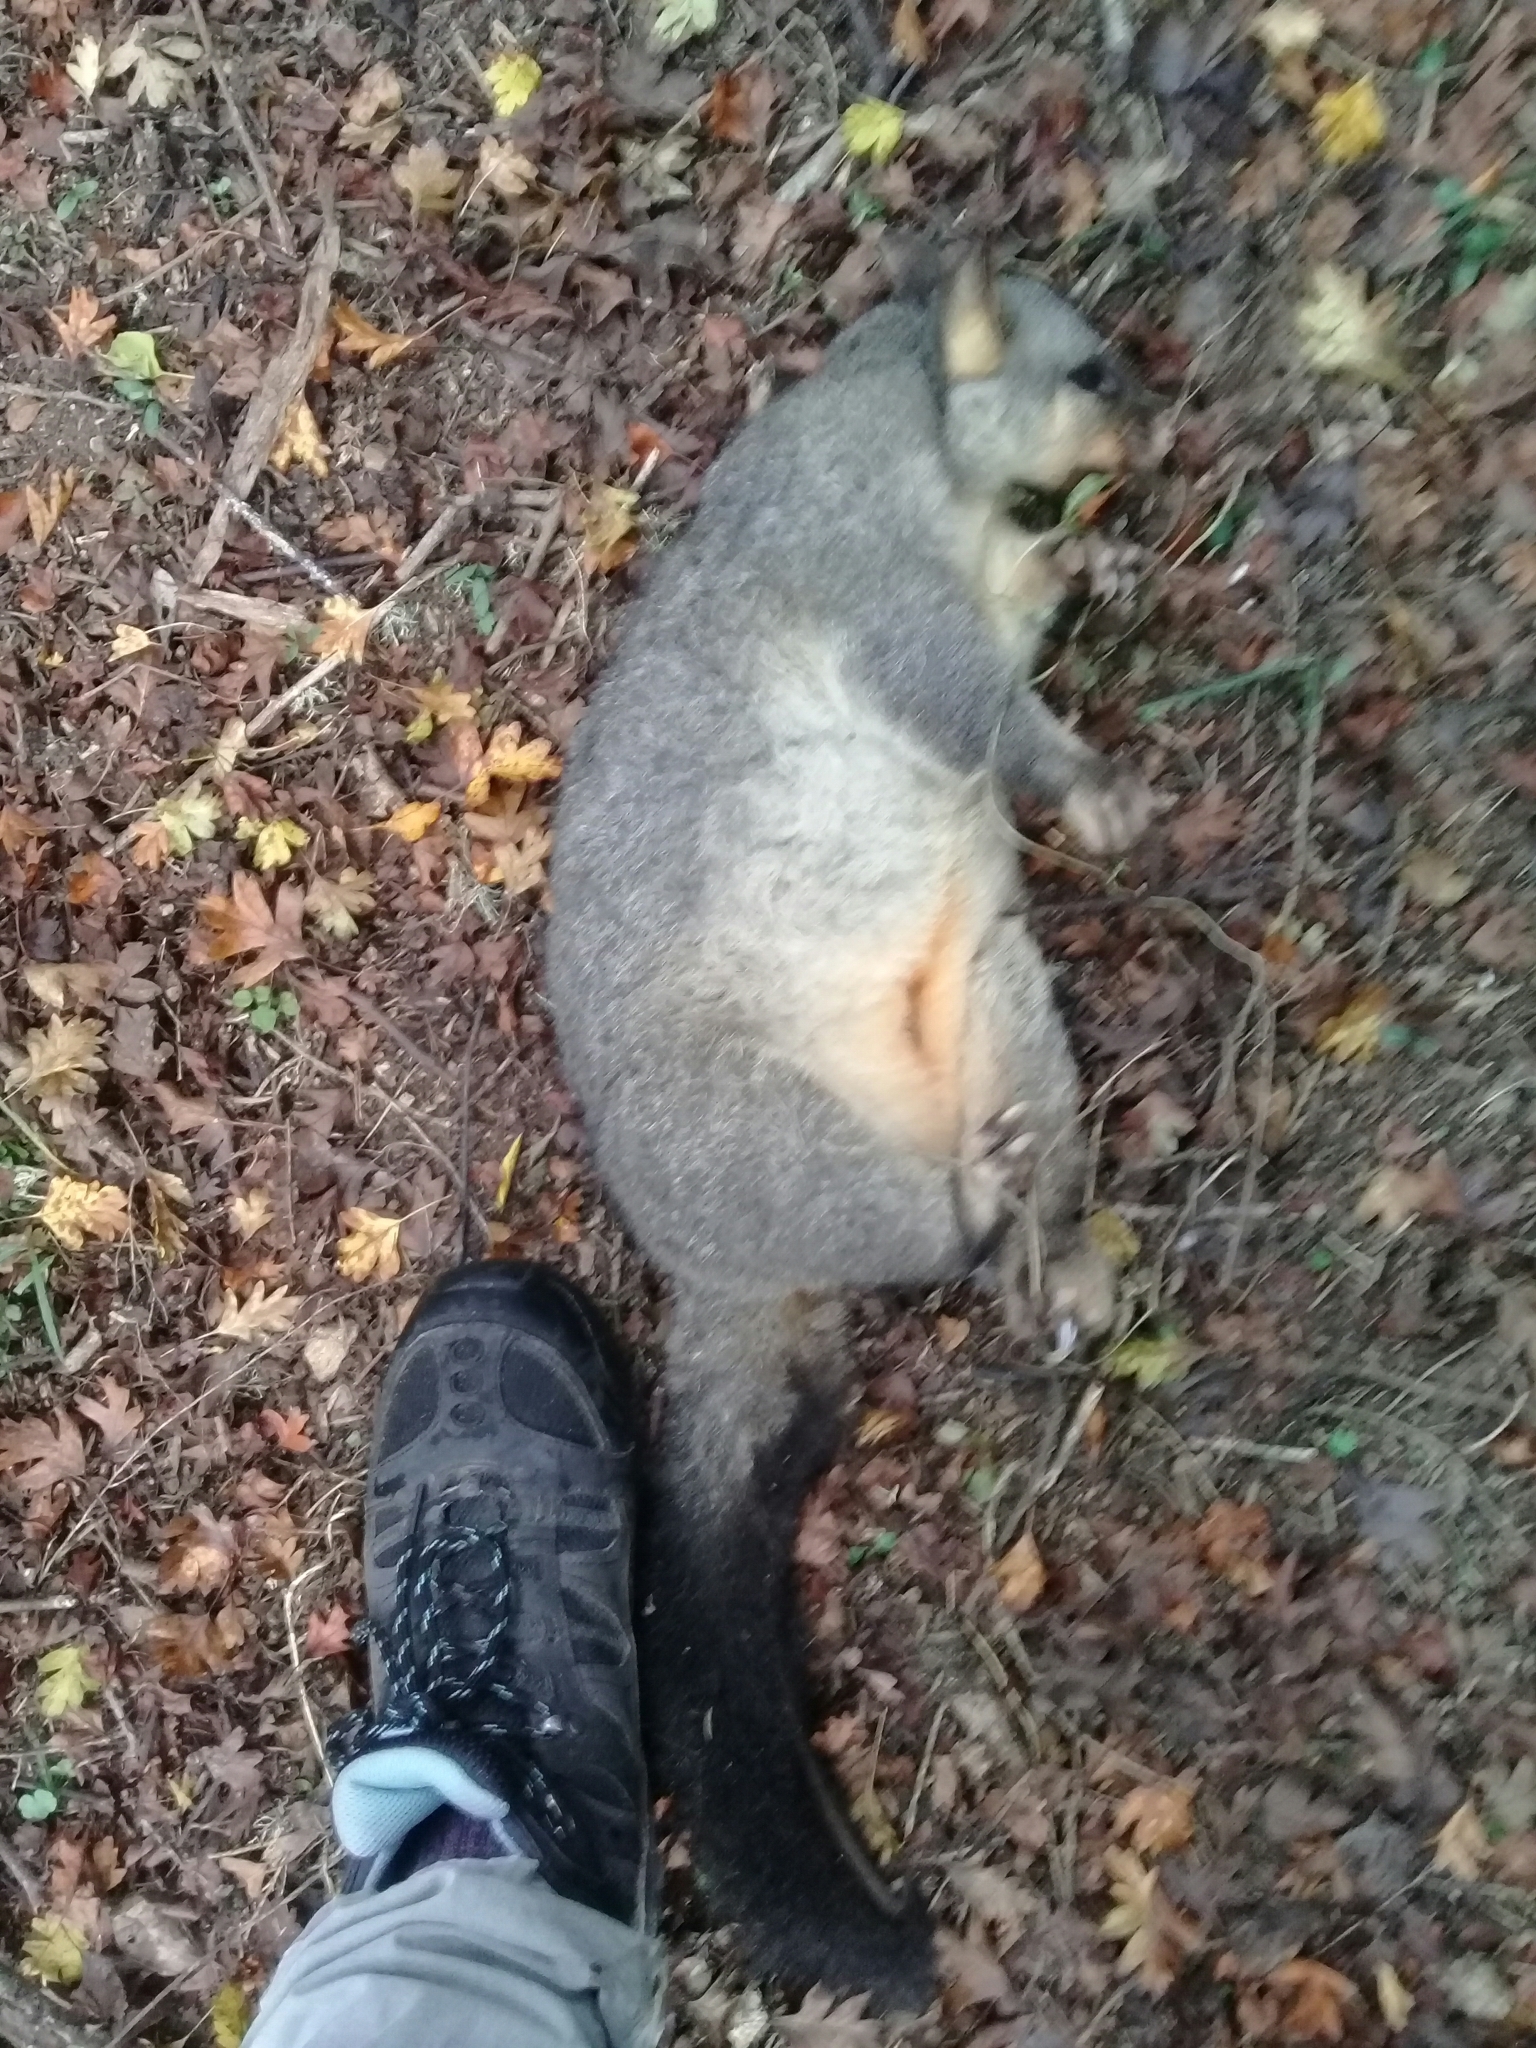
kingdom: Animalia
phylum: Chordata
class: Mammalia
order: Diprotodontia
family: Phalangeridae
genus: Trichosurus
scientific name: Trichosurus vulpecula
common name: Common brushtail
